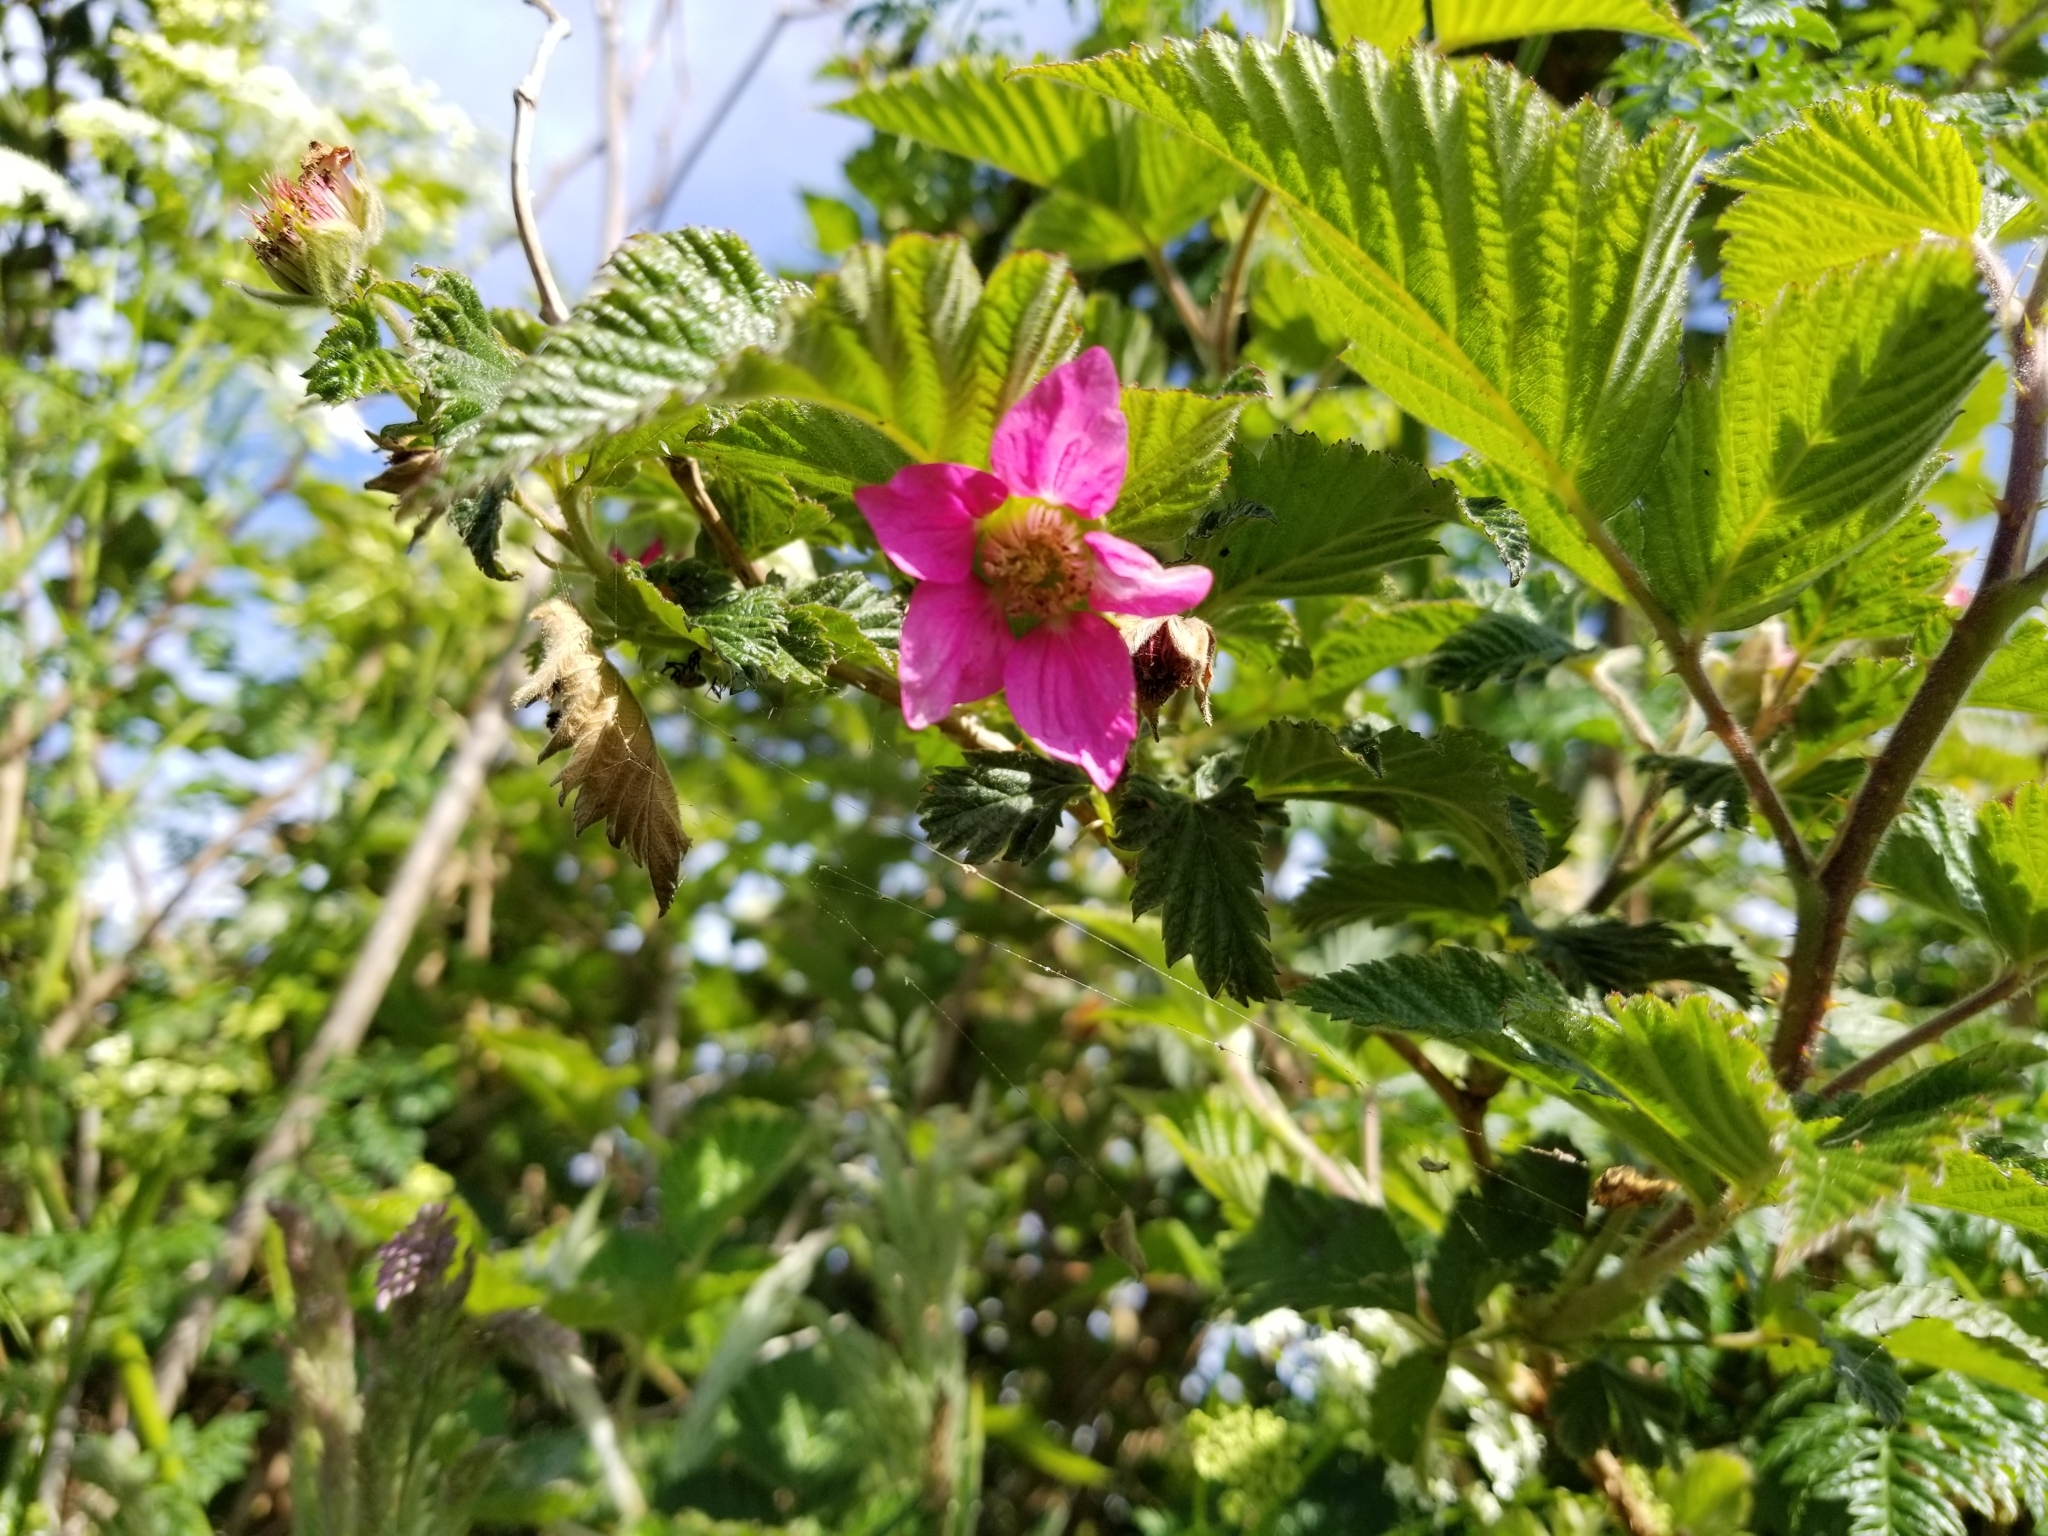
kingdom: Plantae
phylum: Tracheophyta
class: Magnoliopsida
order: Rosales
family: Rosaceae
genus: Rubus
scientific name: Rubus spectabilis
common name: Salmonberry
